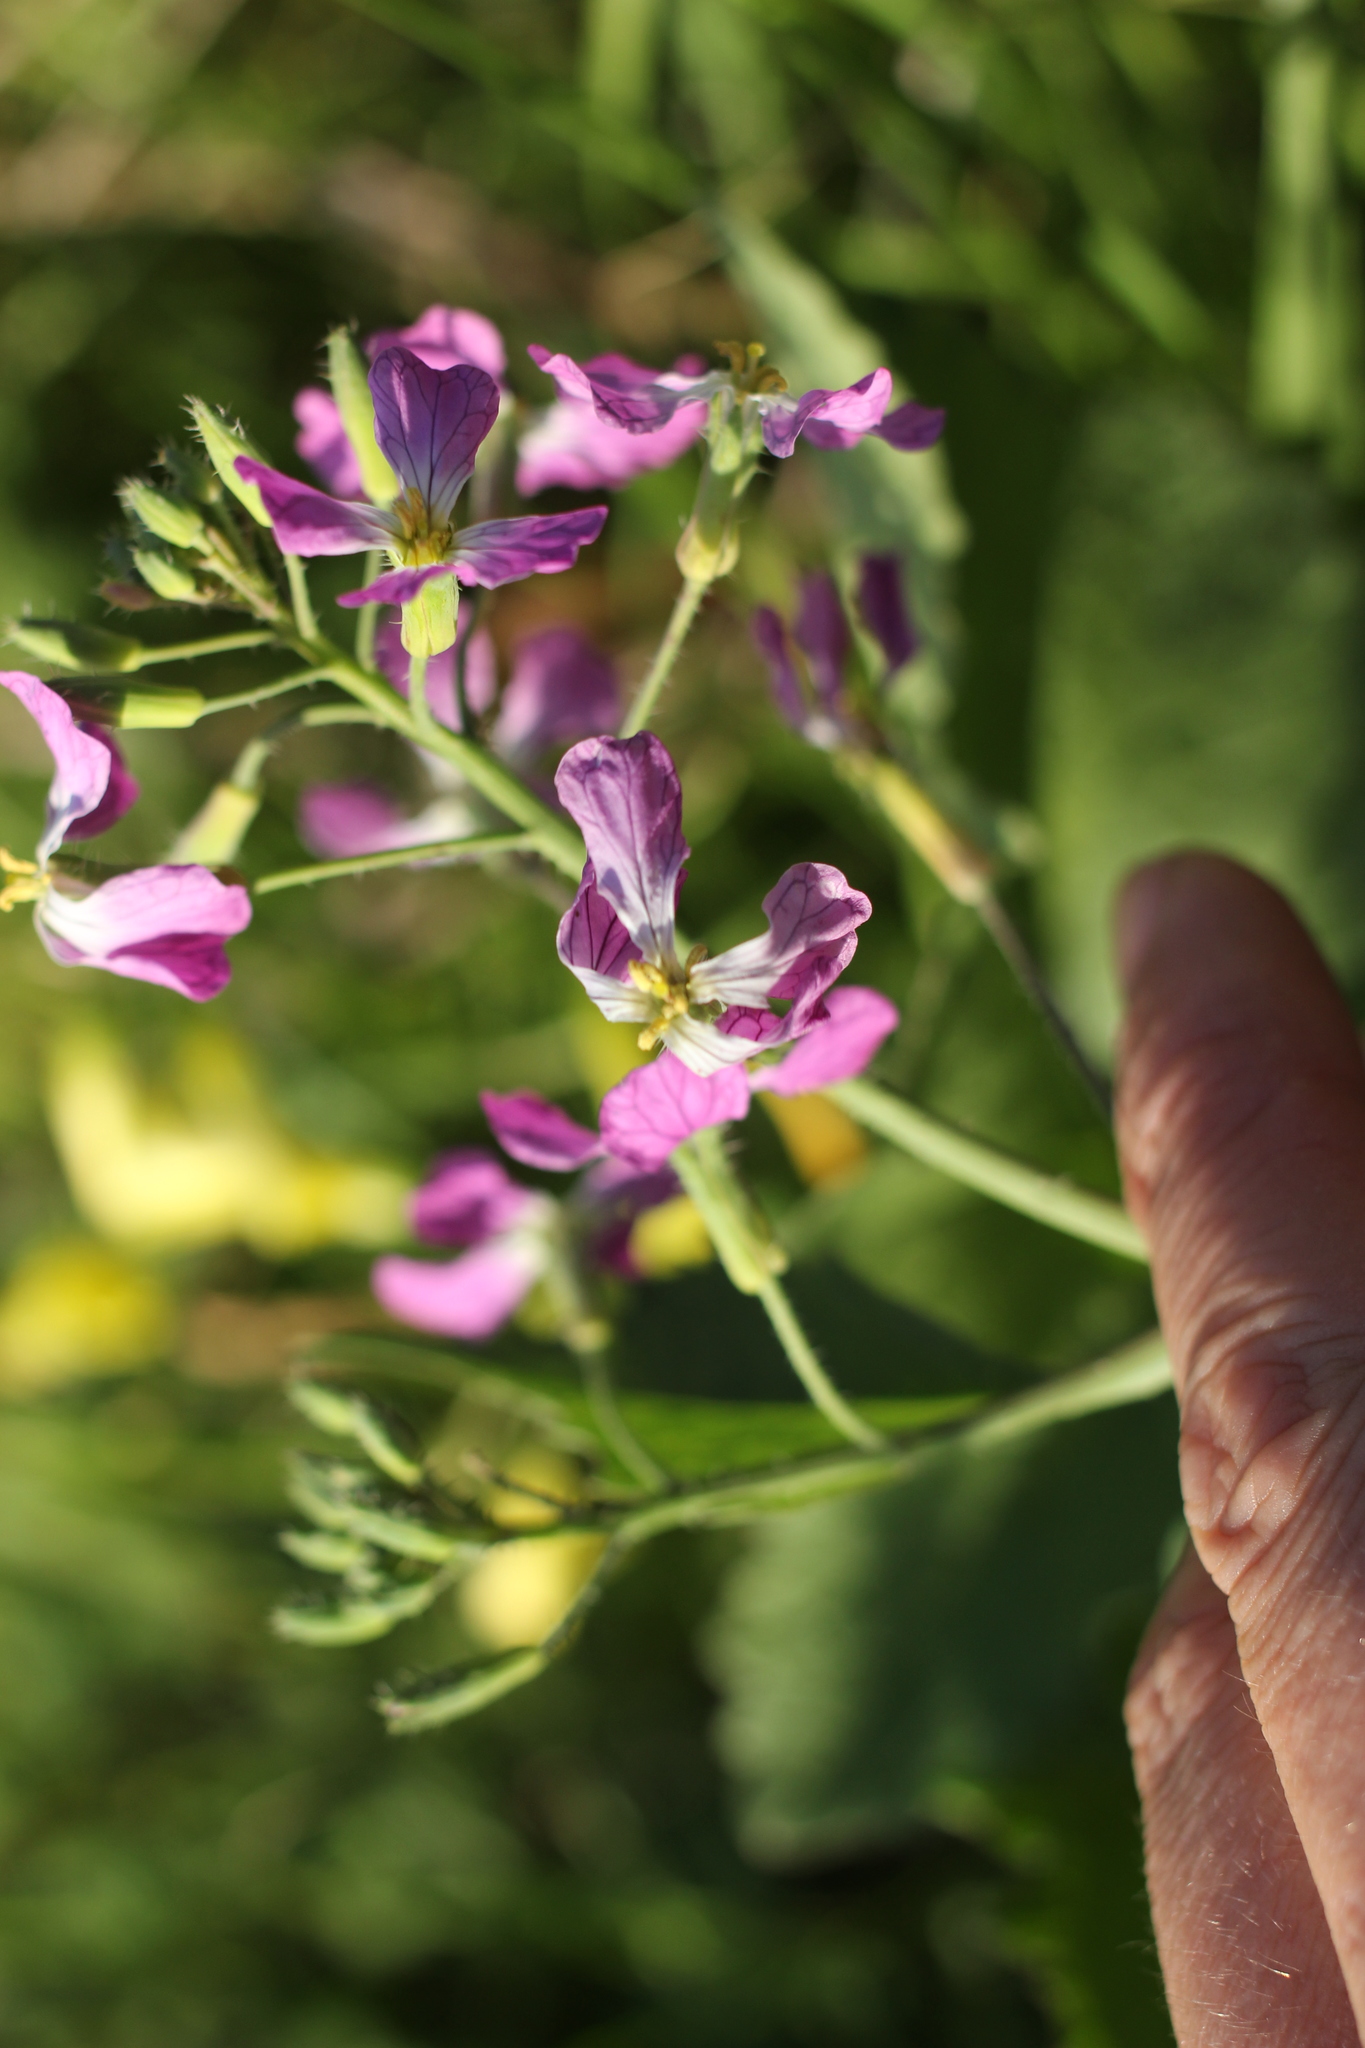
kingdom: Plantae
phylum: Tracheophyta
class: Magnoliopsida
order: Brassicales
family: Brassicaceae
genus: Raphanus
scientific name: Raphanus sativus
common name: Cultivated radish
